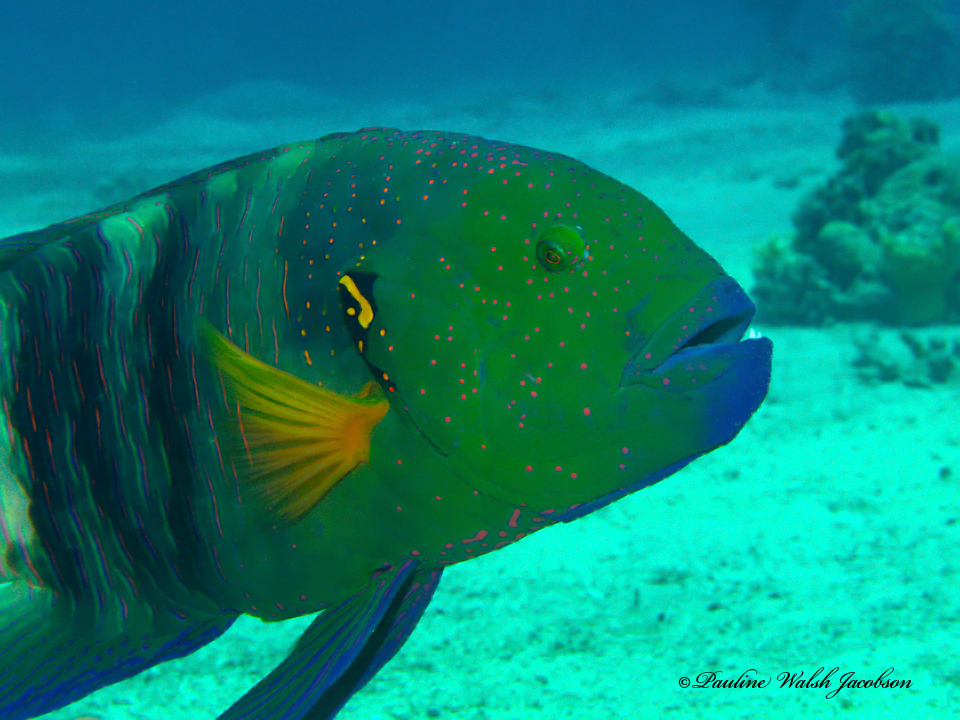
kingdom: Animalia
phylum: Chordata
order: Perciformes
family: Labridae
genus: Cheilinus
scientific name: Cheilinus lunulatus
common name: Broomtail wrasse
